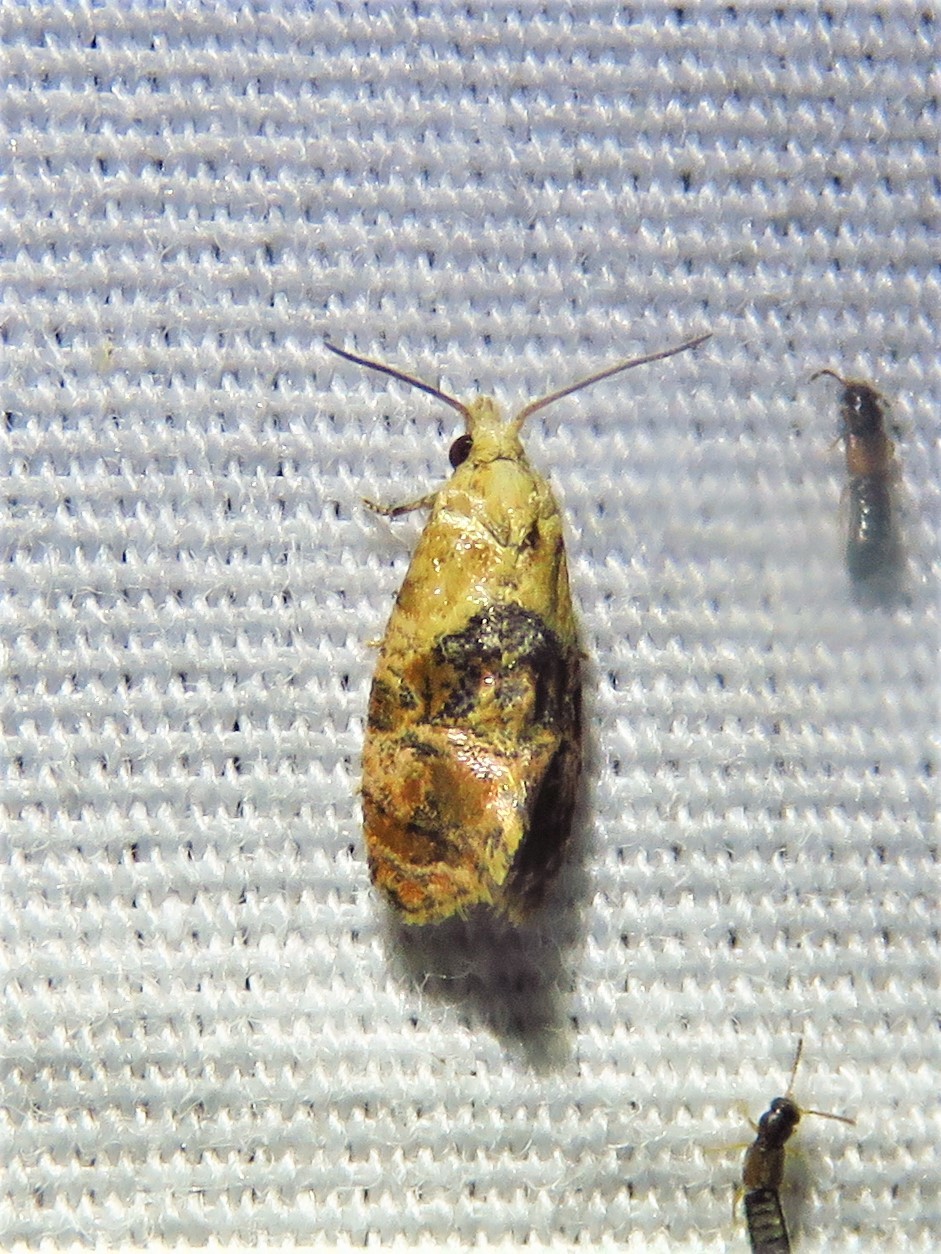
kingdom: Animalia
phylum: Arthropoda
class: Insecta
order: Lepidoptera
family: Tortricidae
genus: Cochylis
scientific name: Cochylis bucera
